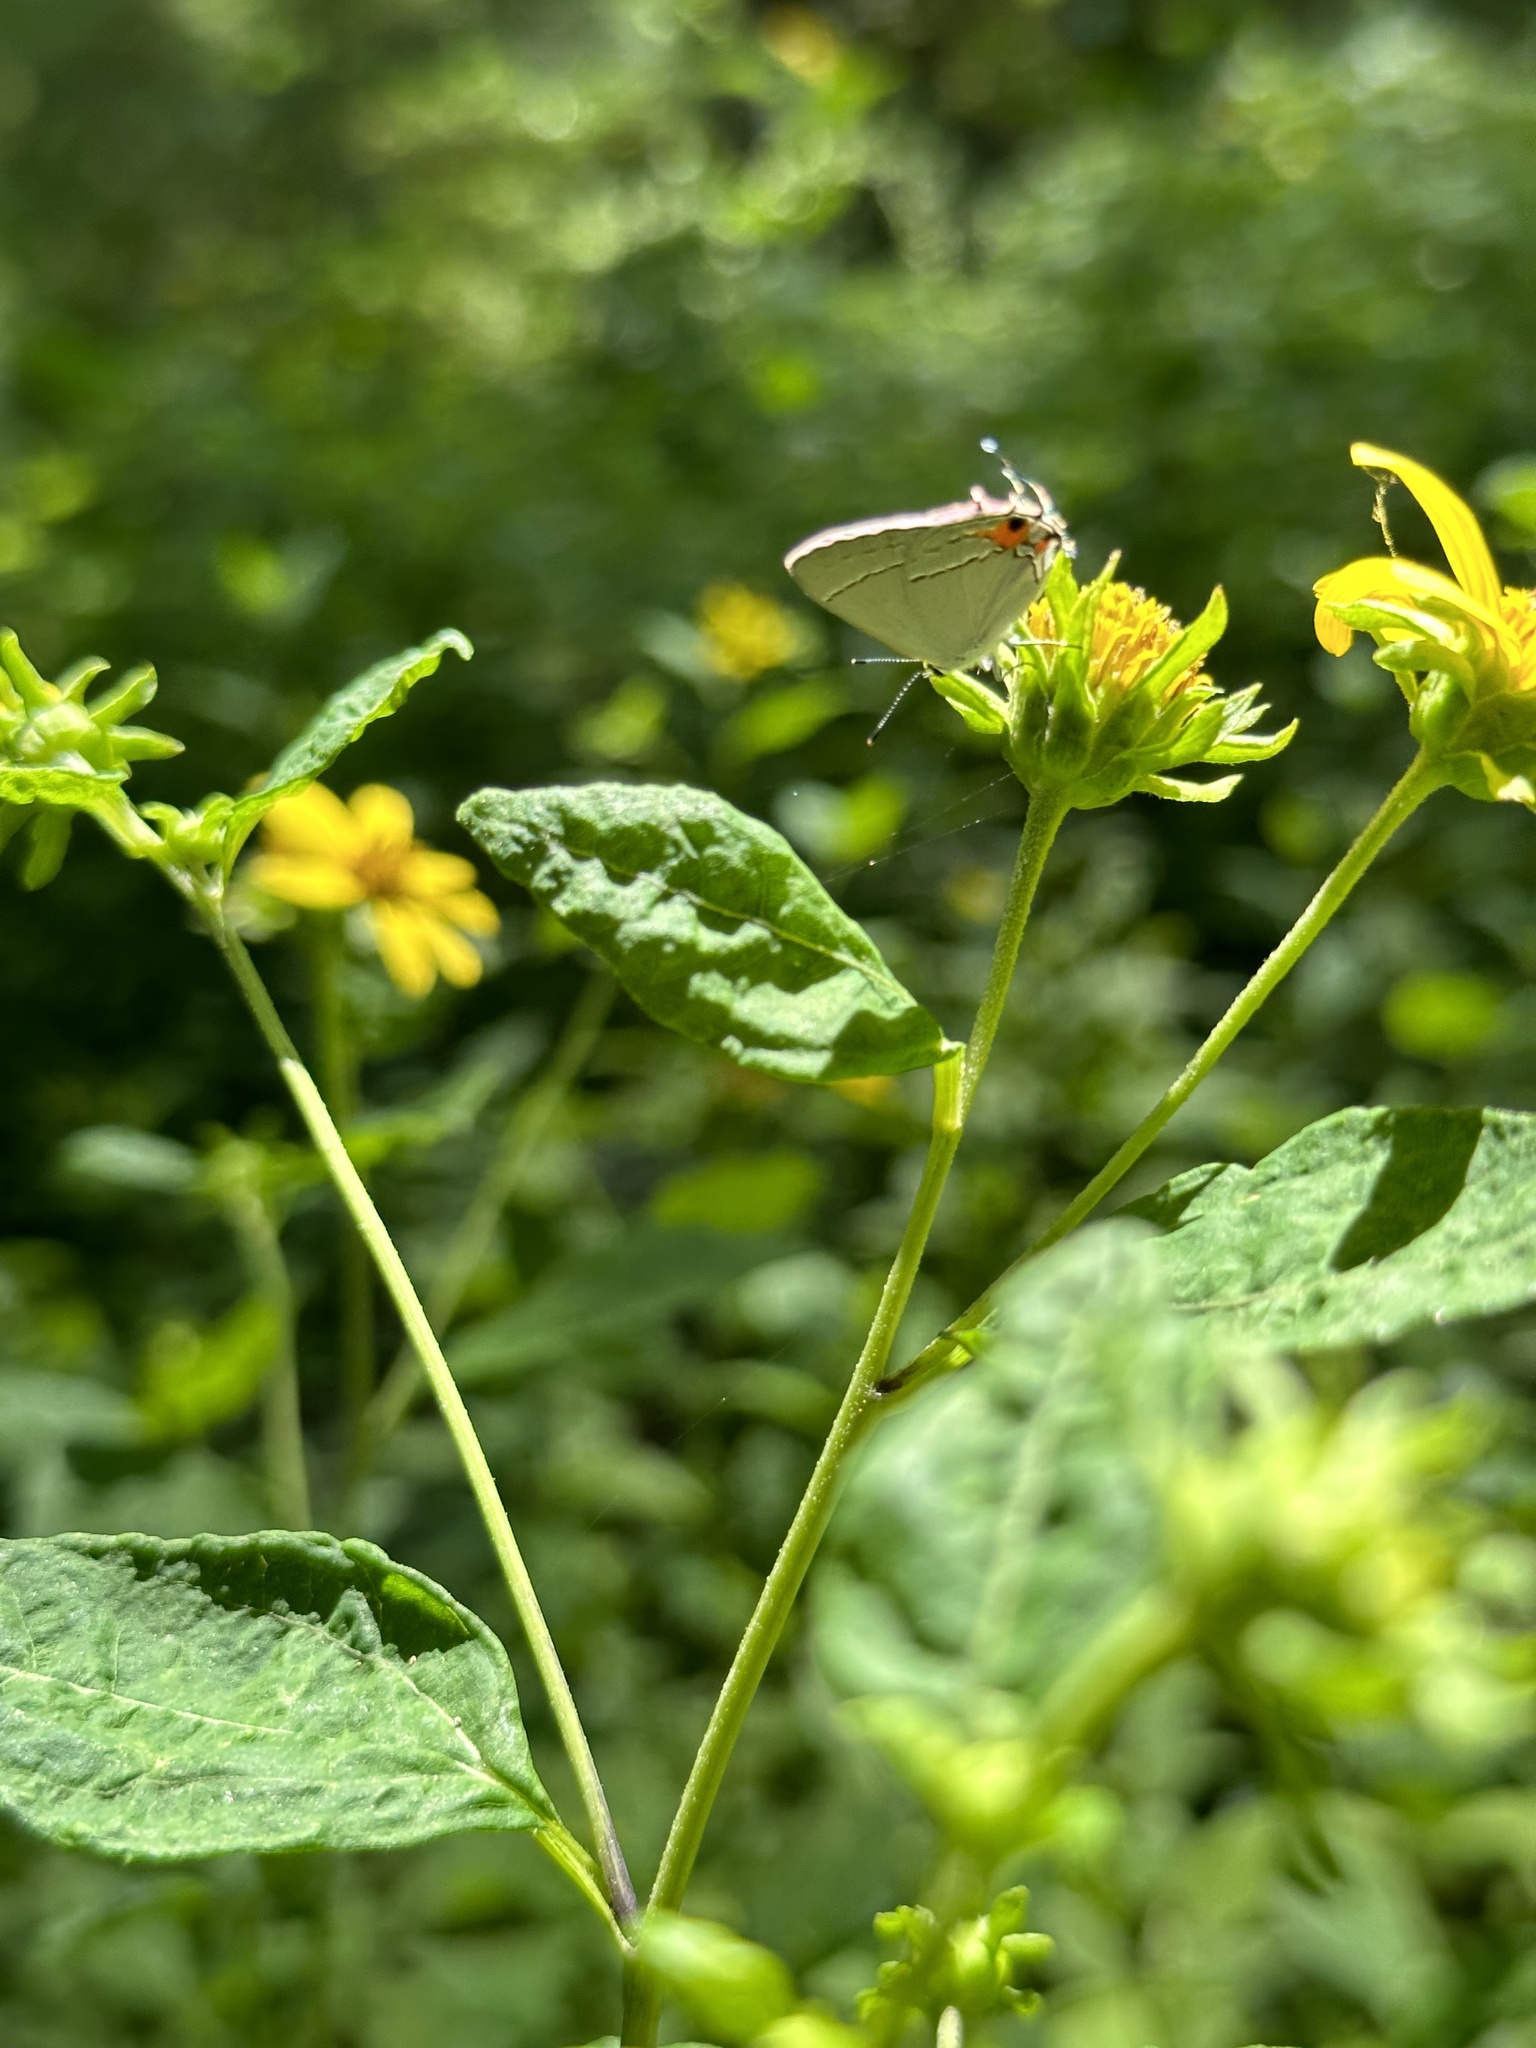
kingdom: Animalia
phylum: Arthropoda
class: Insecta
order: Lepidoptera
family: Lycaenidae
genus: Strymon
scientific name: Strymon melinus
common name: Gray hairstreak
